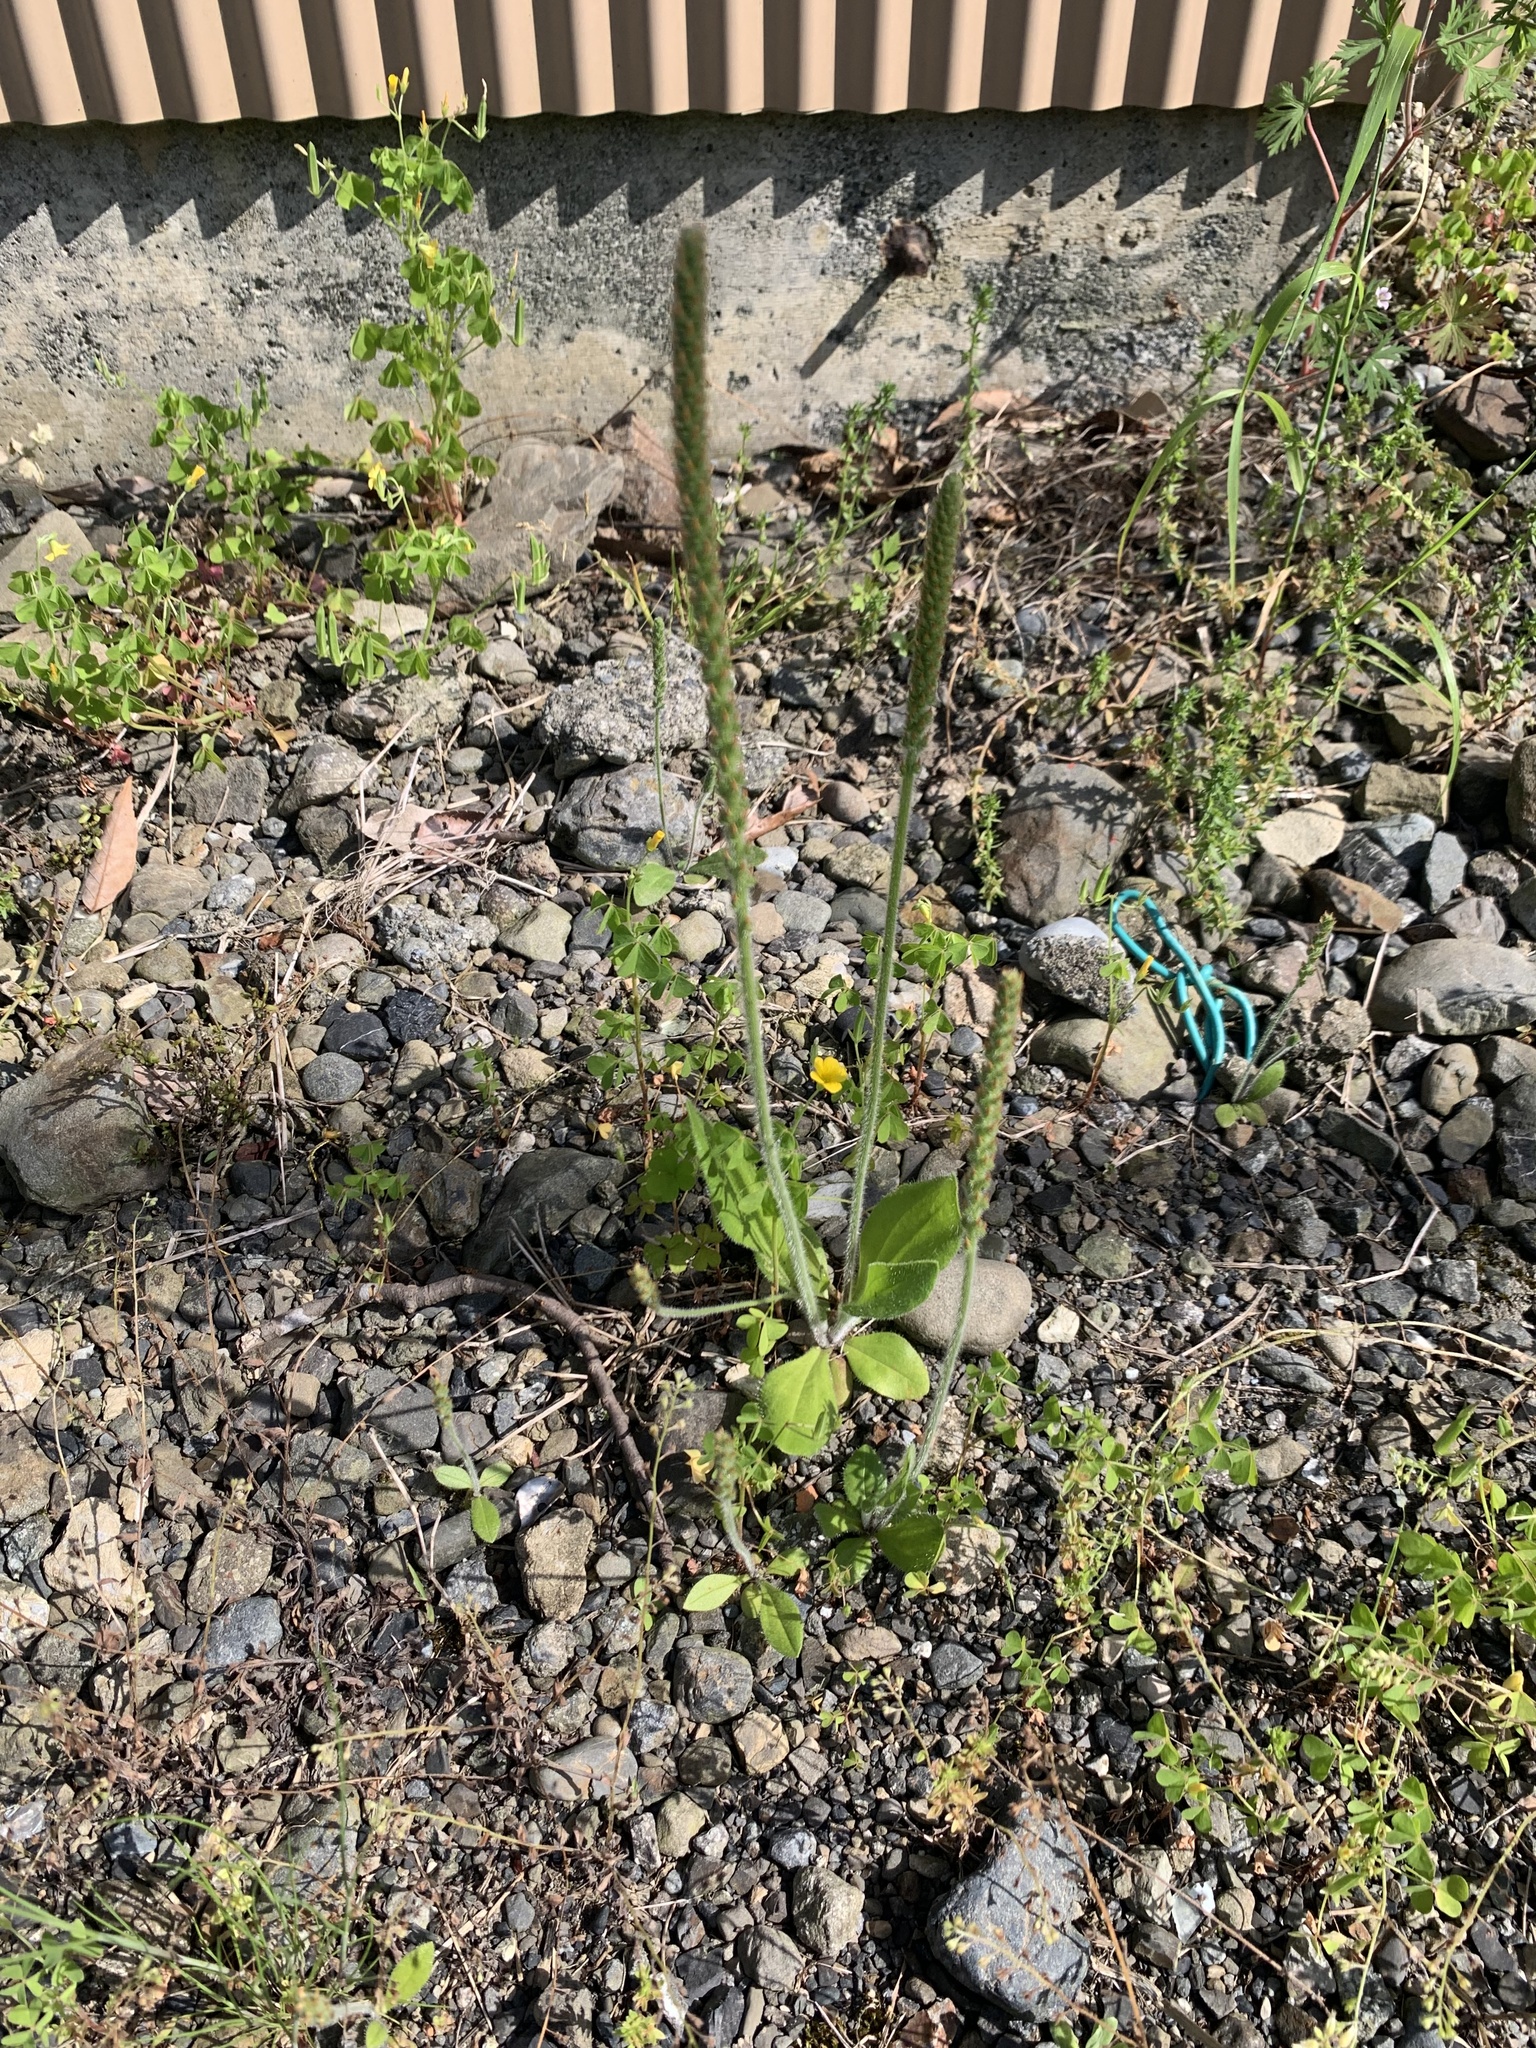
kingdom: Plantae
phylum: Tracheophyta
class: Magnoliopsida
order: Lamiales
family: Plantaginaceae
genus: Plantago
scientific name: Plantago virginica
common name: Hoary plantain
